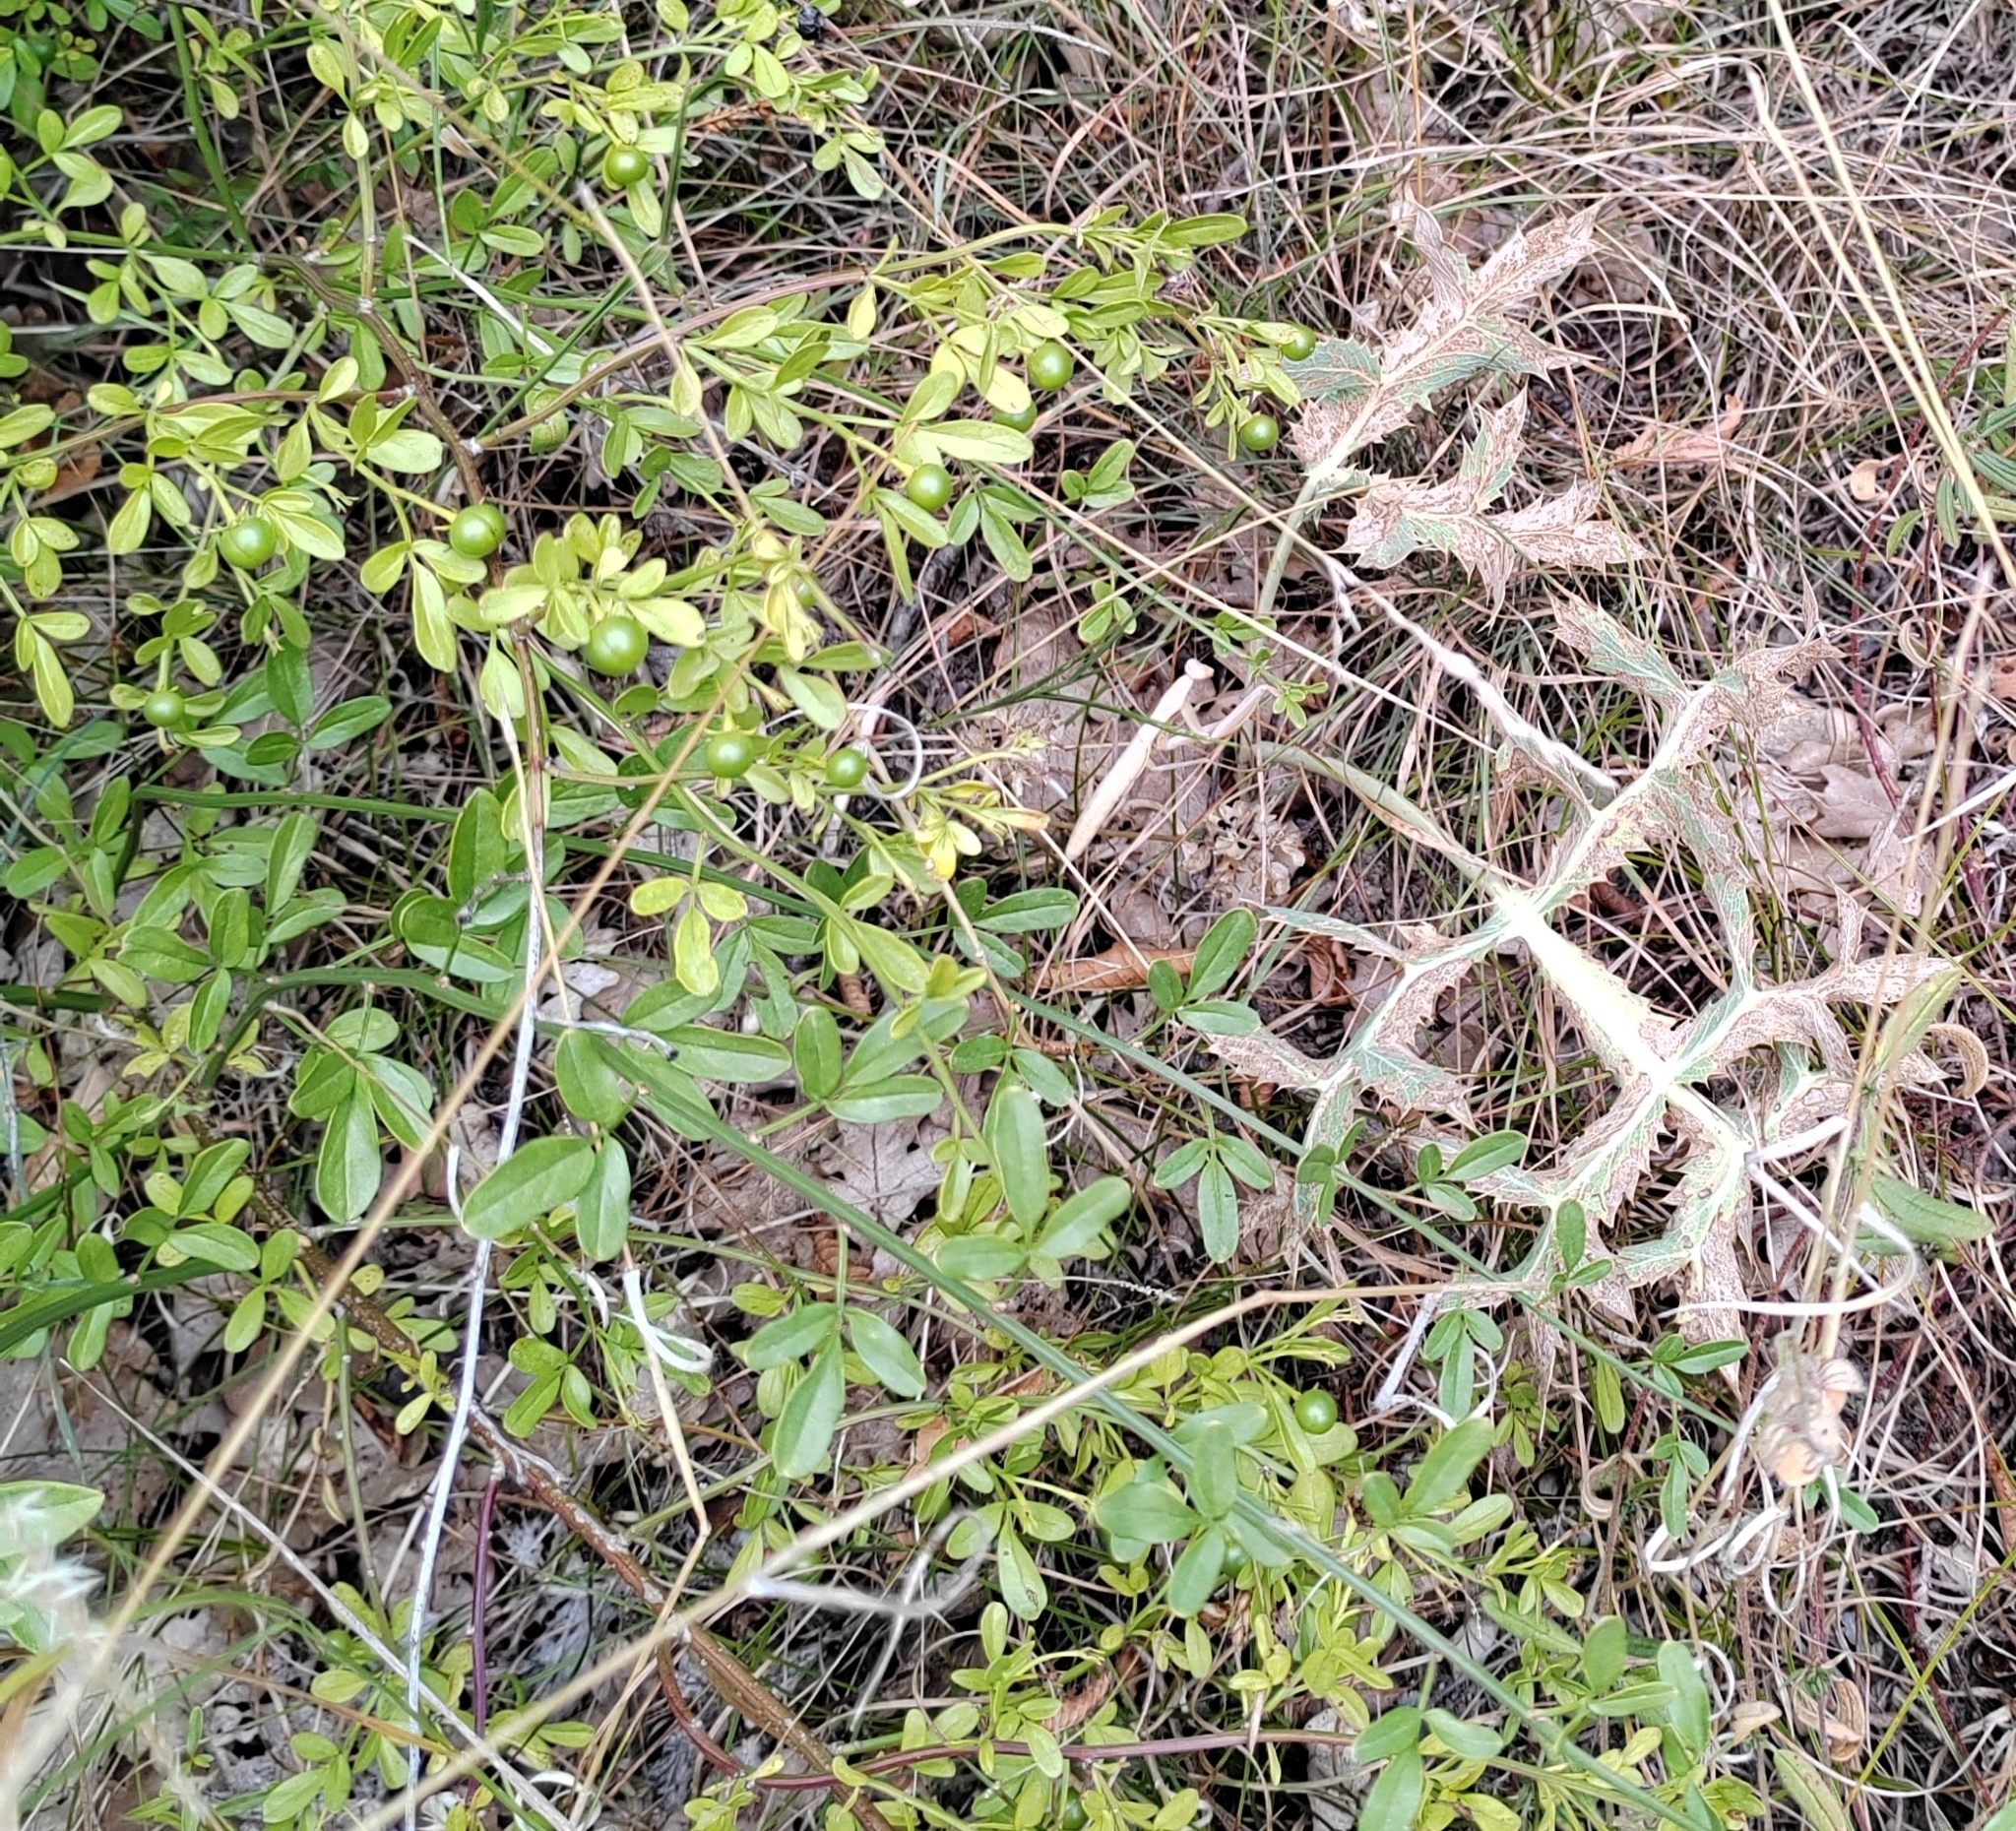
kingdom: Plantae
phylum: Tracheophyta
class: Magnoliopsida
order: Lamiales
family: Oleaceae
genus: Chrysojasminum
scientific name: Chrysojasminum fruticans
